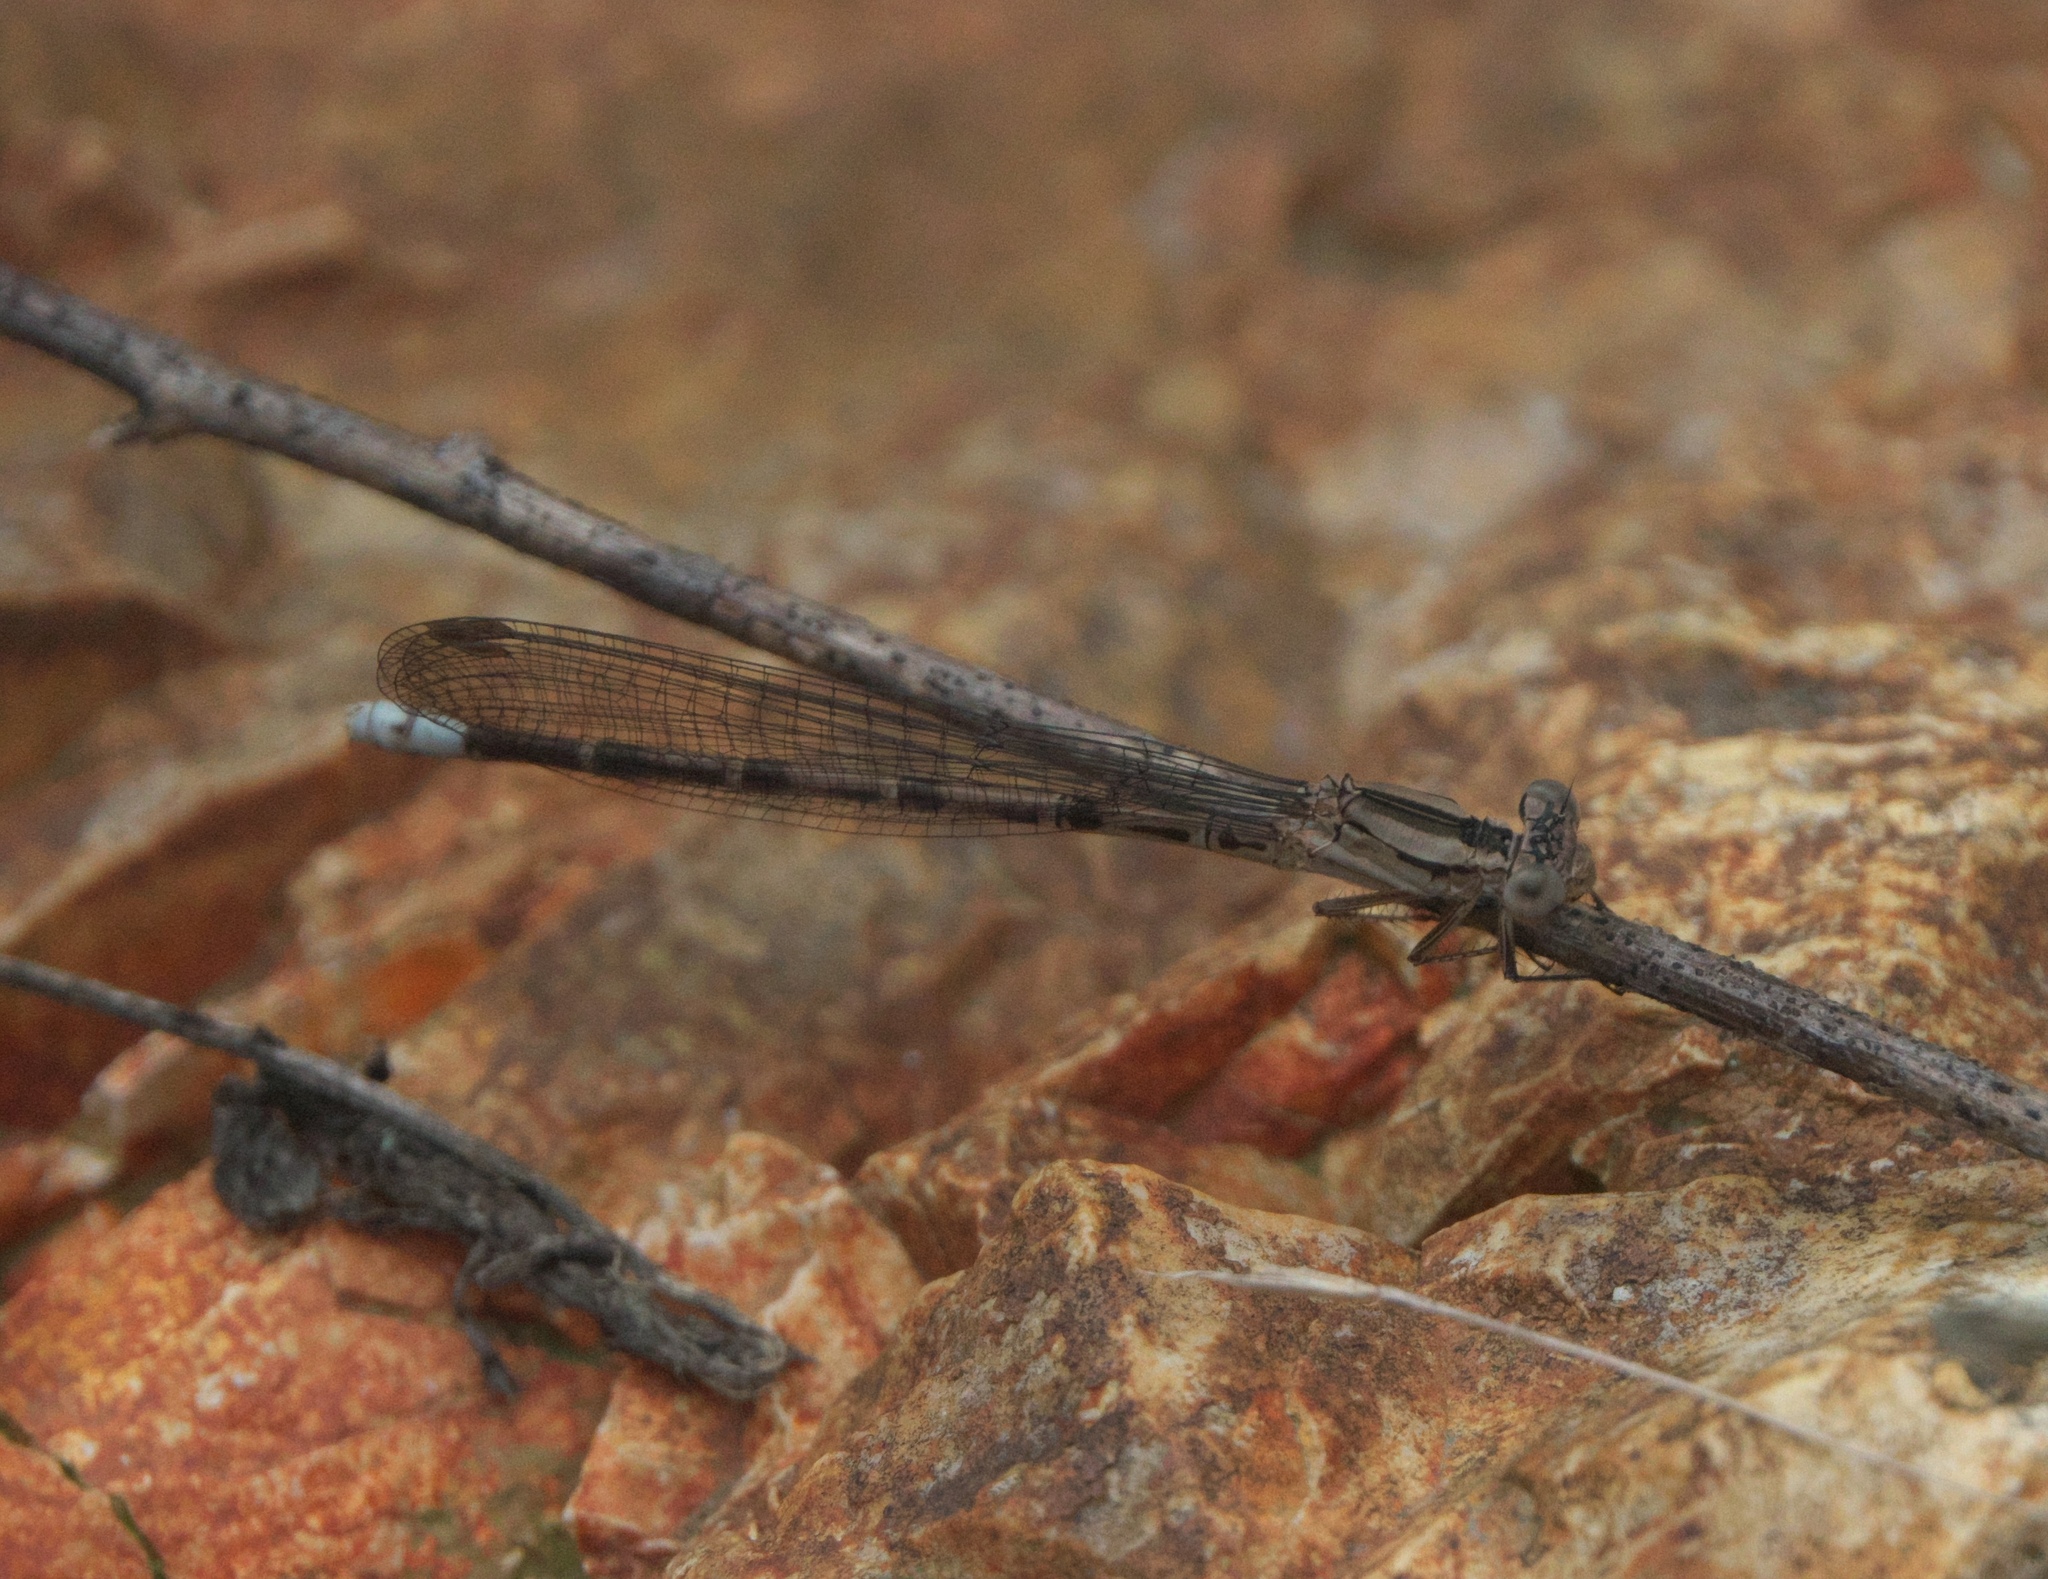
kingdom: Animalia
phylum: Arthropoda
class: Insecta
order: Odonata
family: Coenagrionidae
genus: Argia
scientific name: Argia funebris
